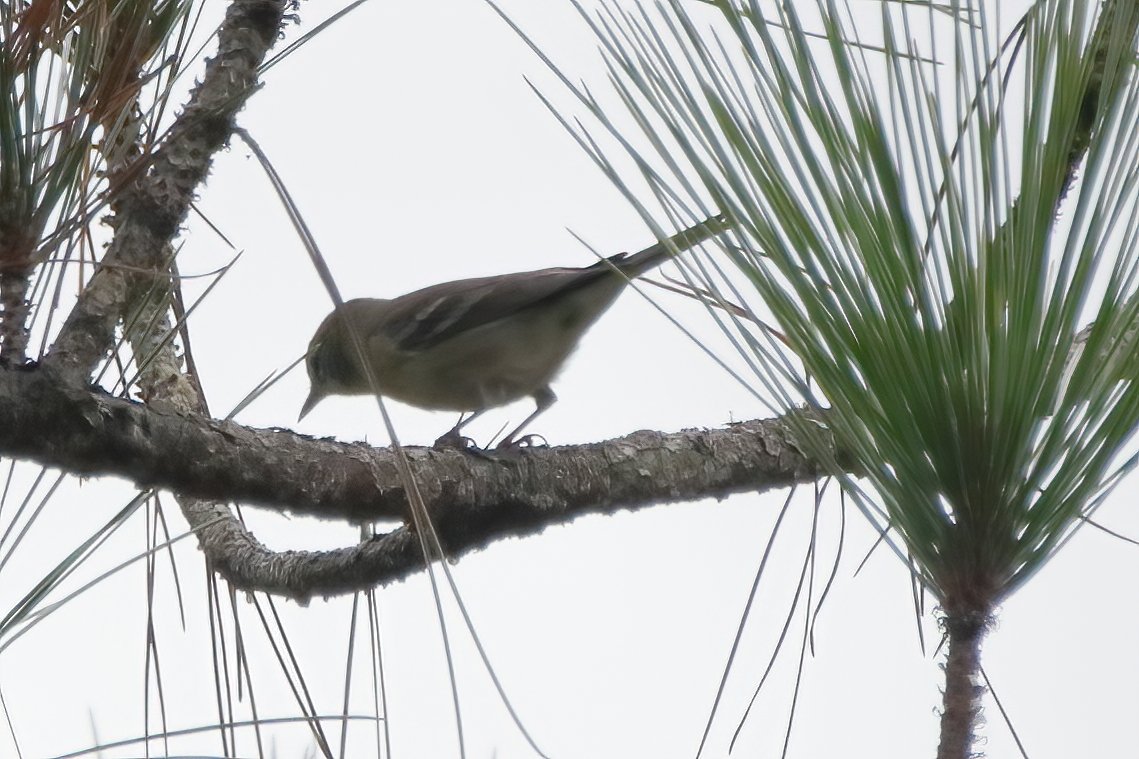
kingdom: Animalia
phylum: Chordata
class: Aves
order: Passeriformes
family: Parulidae
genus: Setophaga
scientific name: Setophaga pinus
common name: Pine warbler
